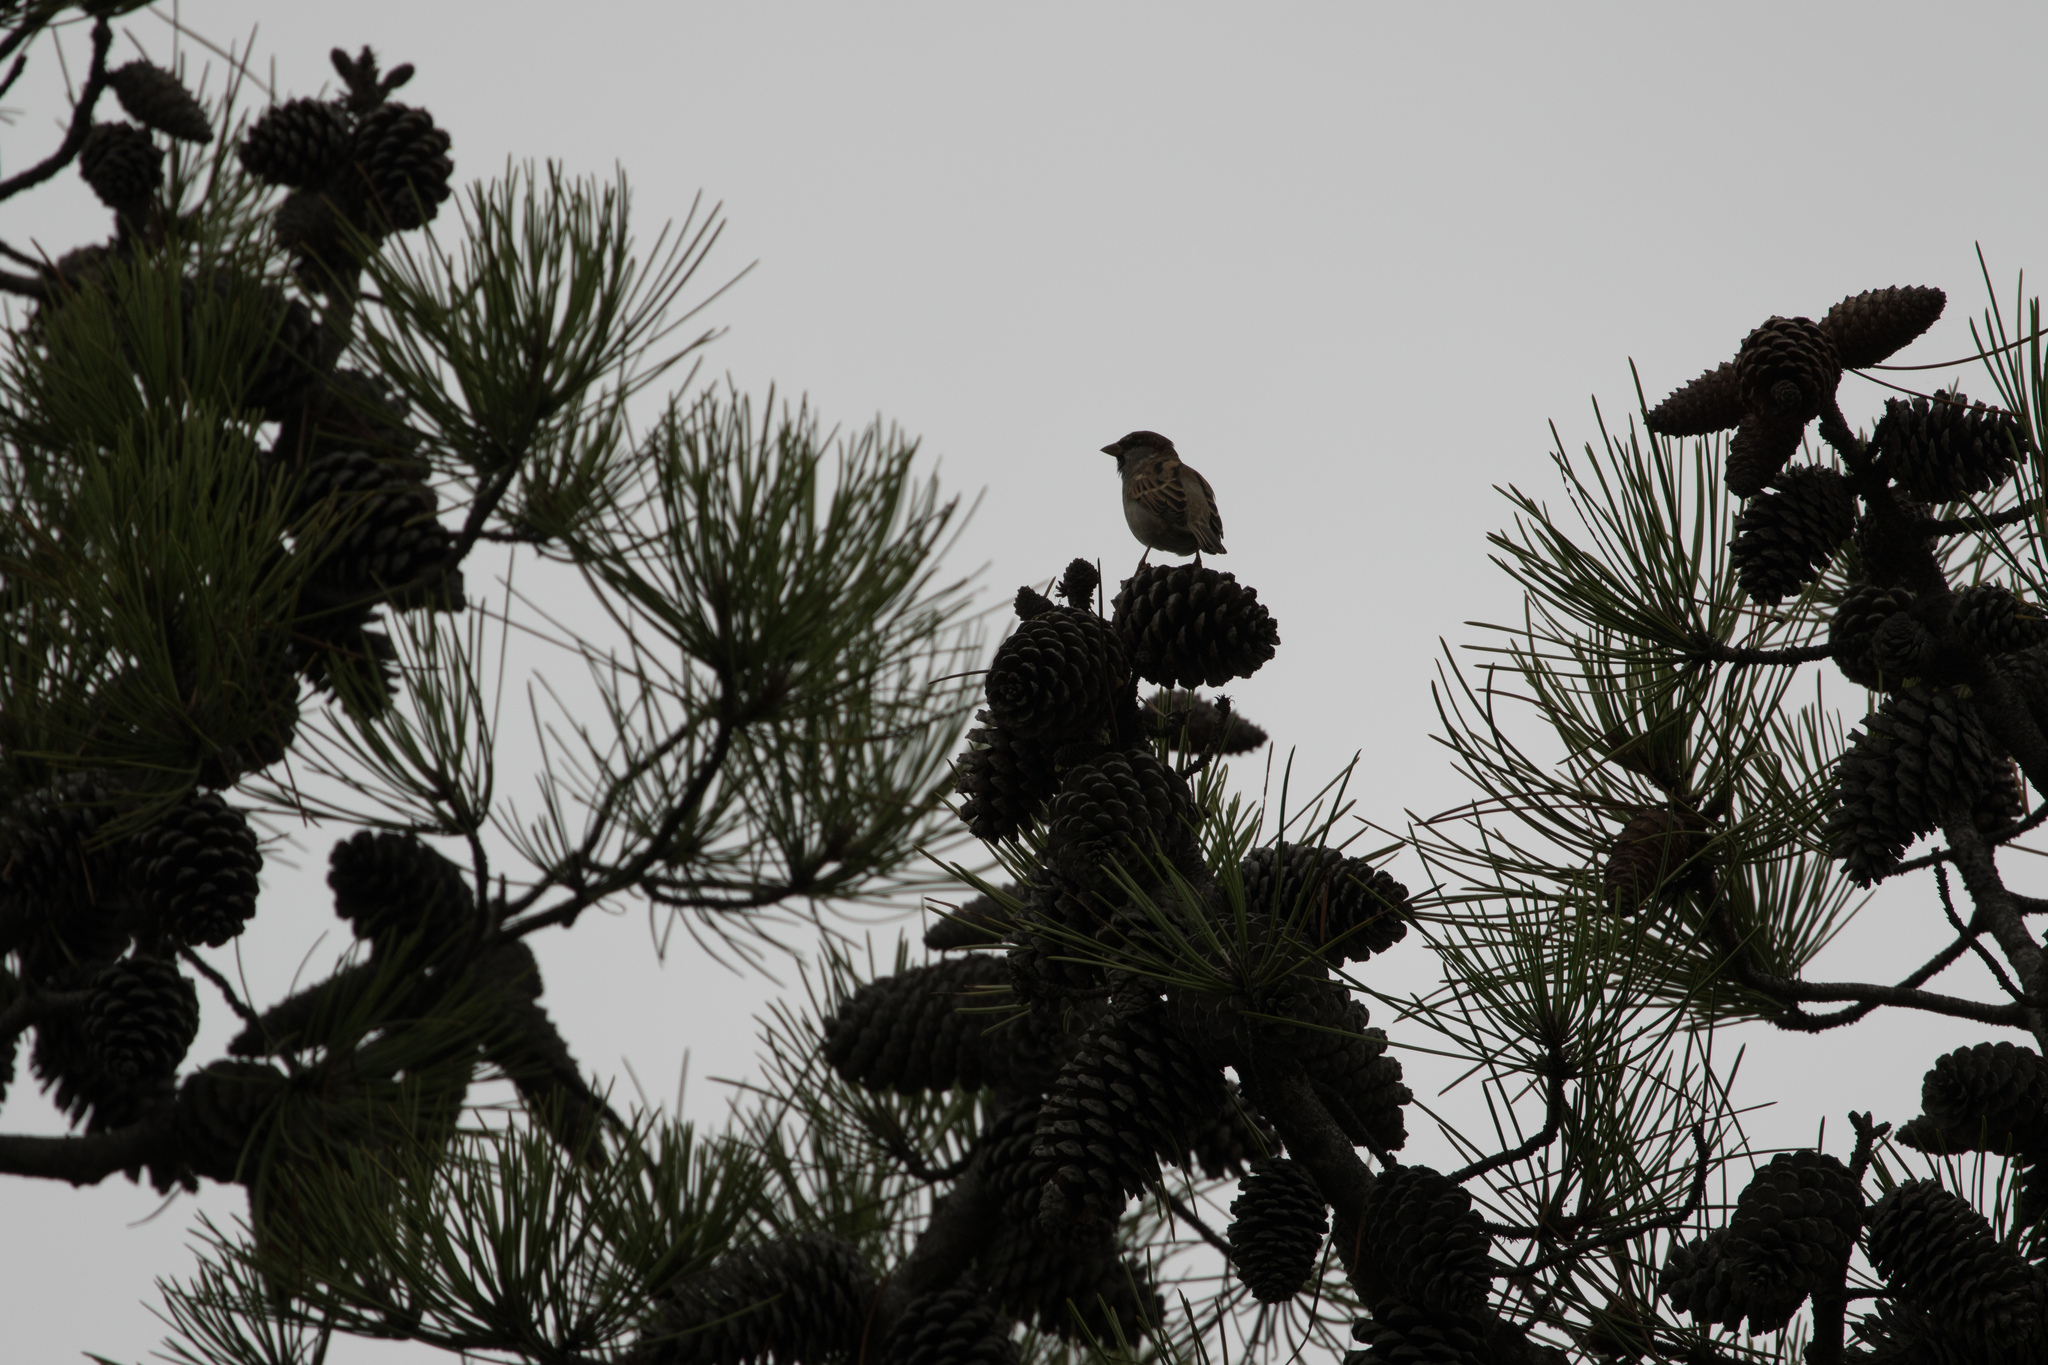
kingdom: Animalia
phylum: Chordata
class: Aves
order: Passeriformes
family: Passeridae
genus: Passer
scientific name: Passer domesticus
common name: House sparrow
